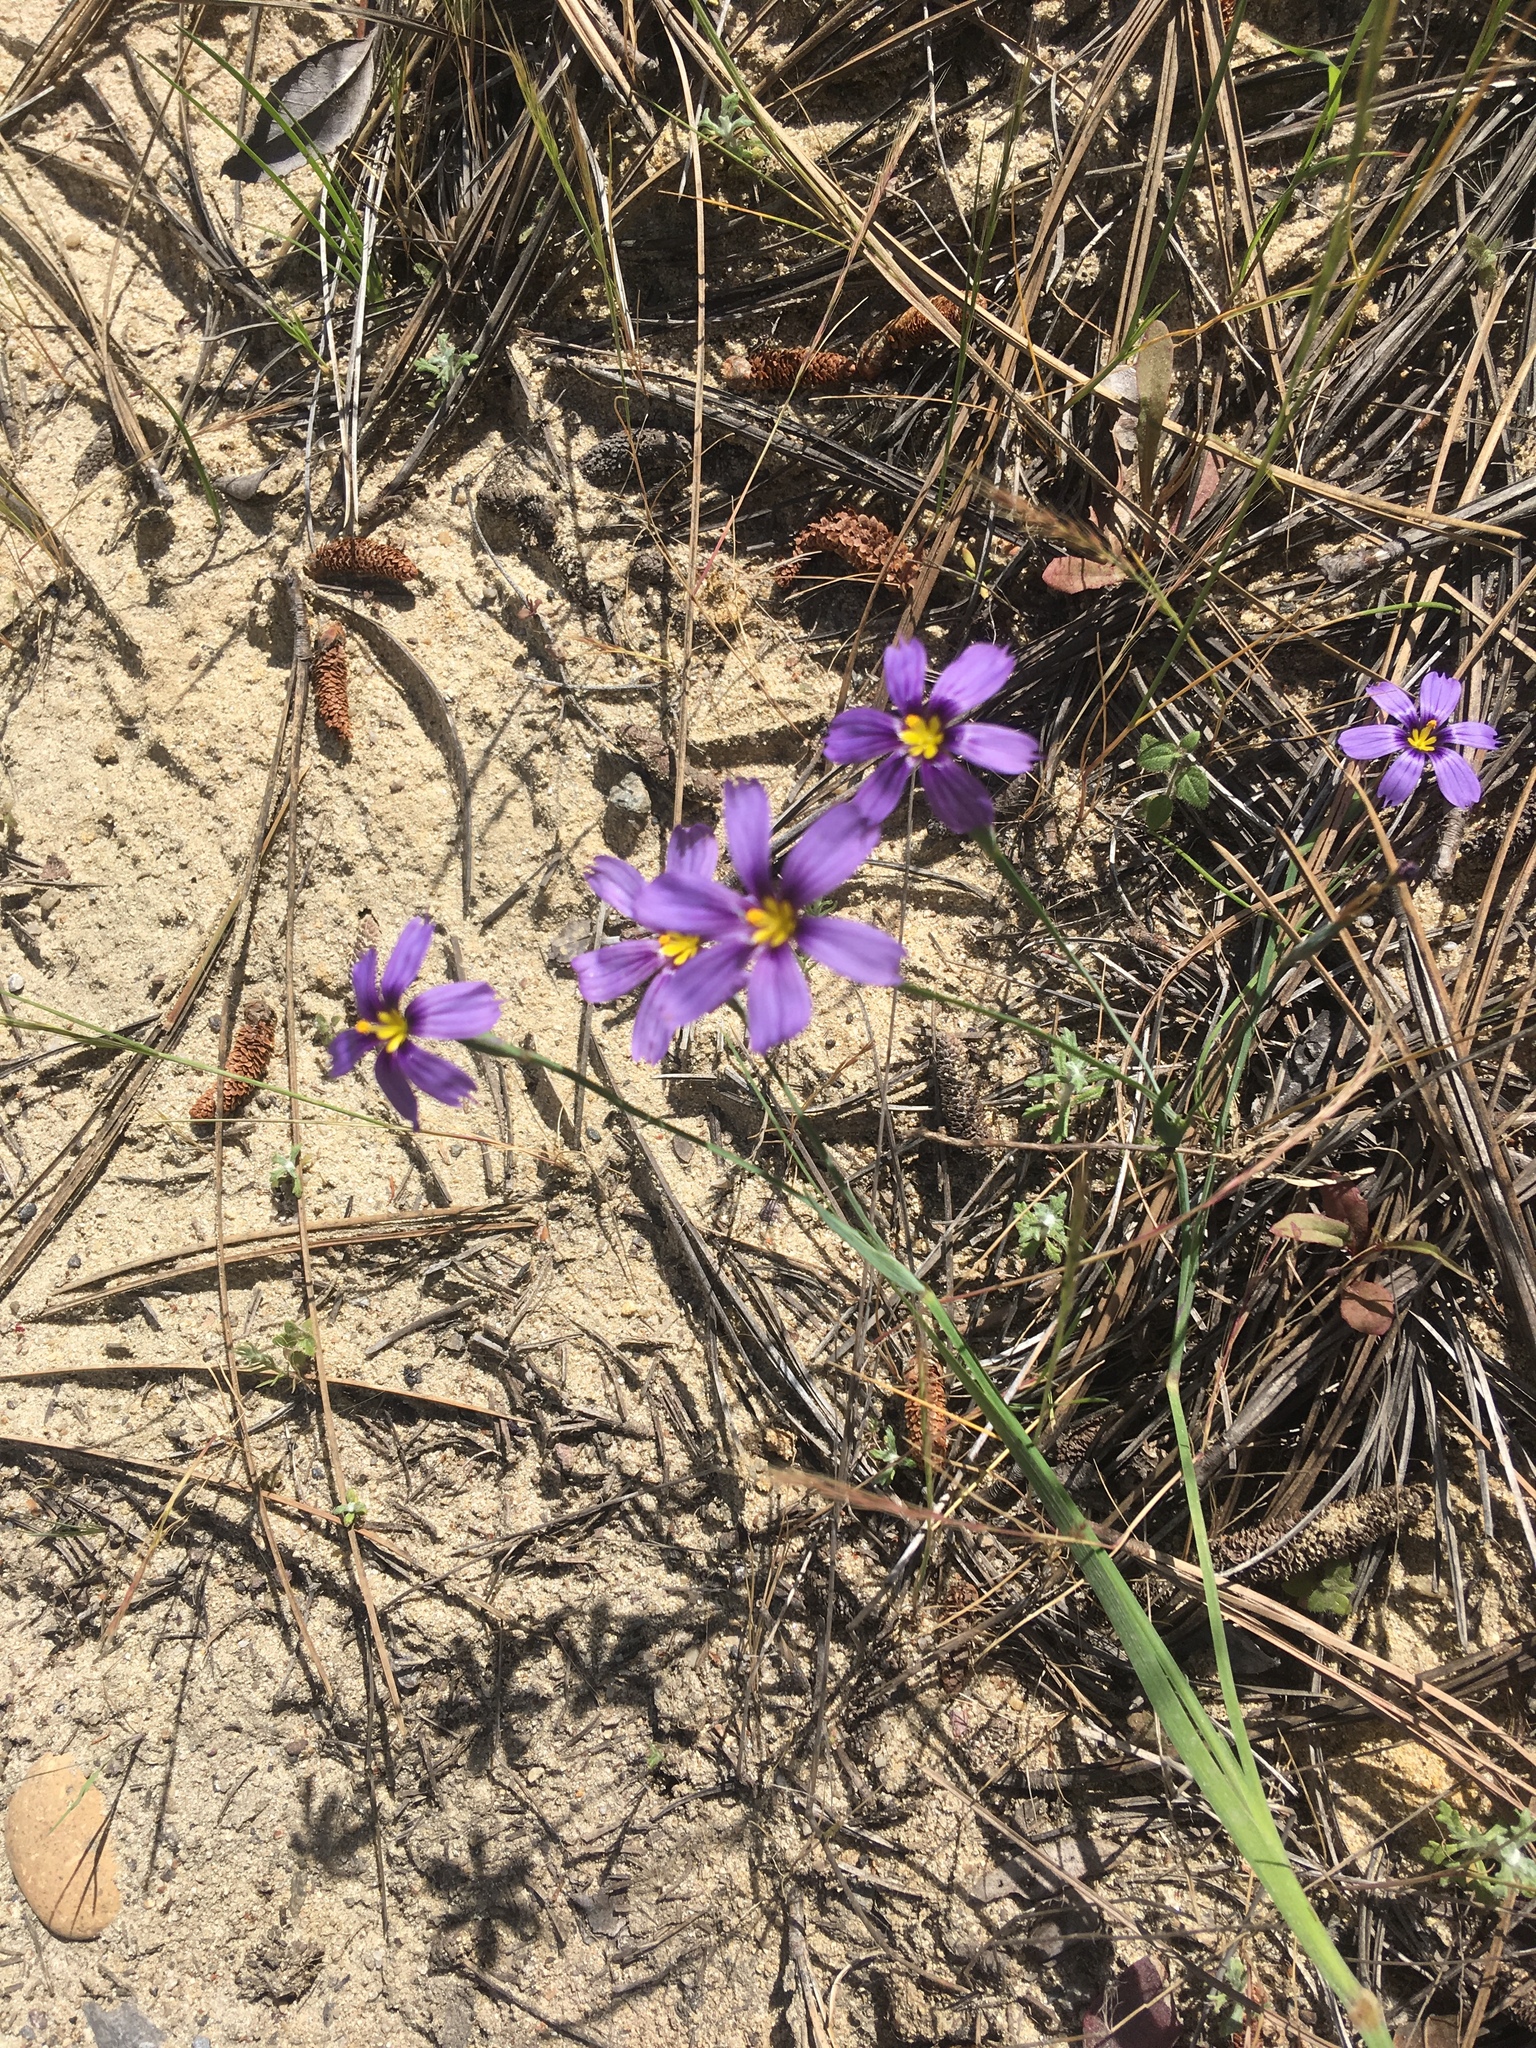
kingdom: Plantae
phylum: Tracheophyta
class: Liliopsida
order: Asparagales
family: Iridaceae
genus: Sisyrinchium
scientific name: Sisyrinchium bellum
